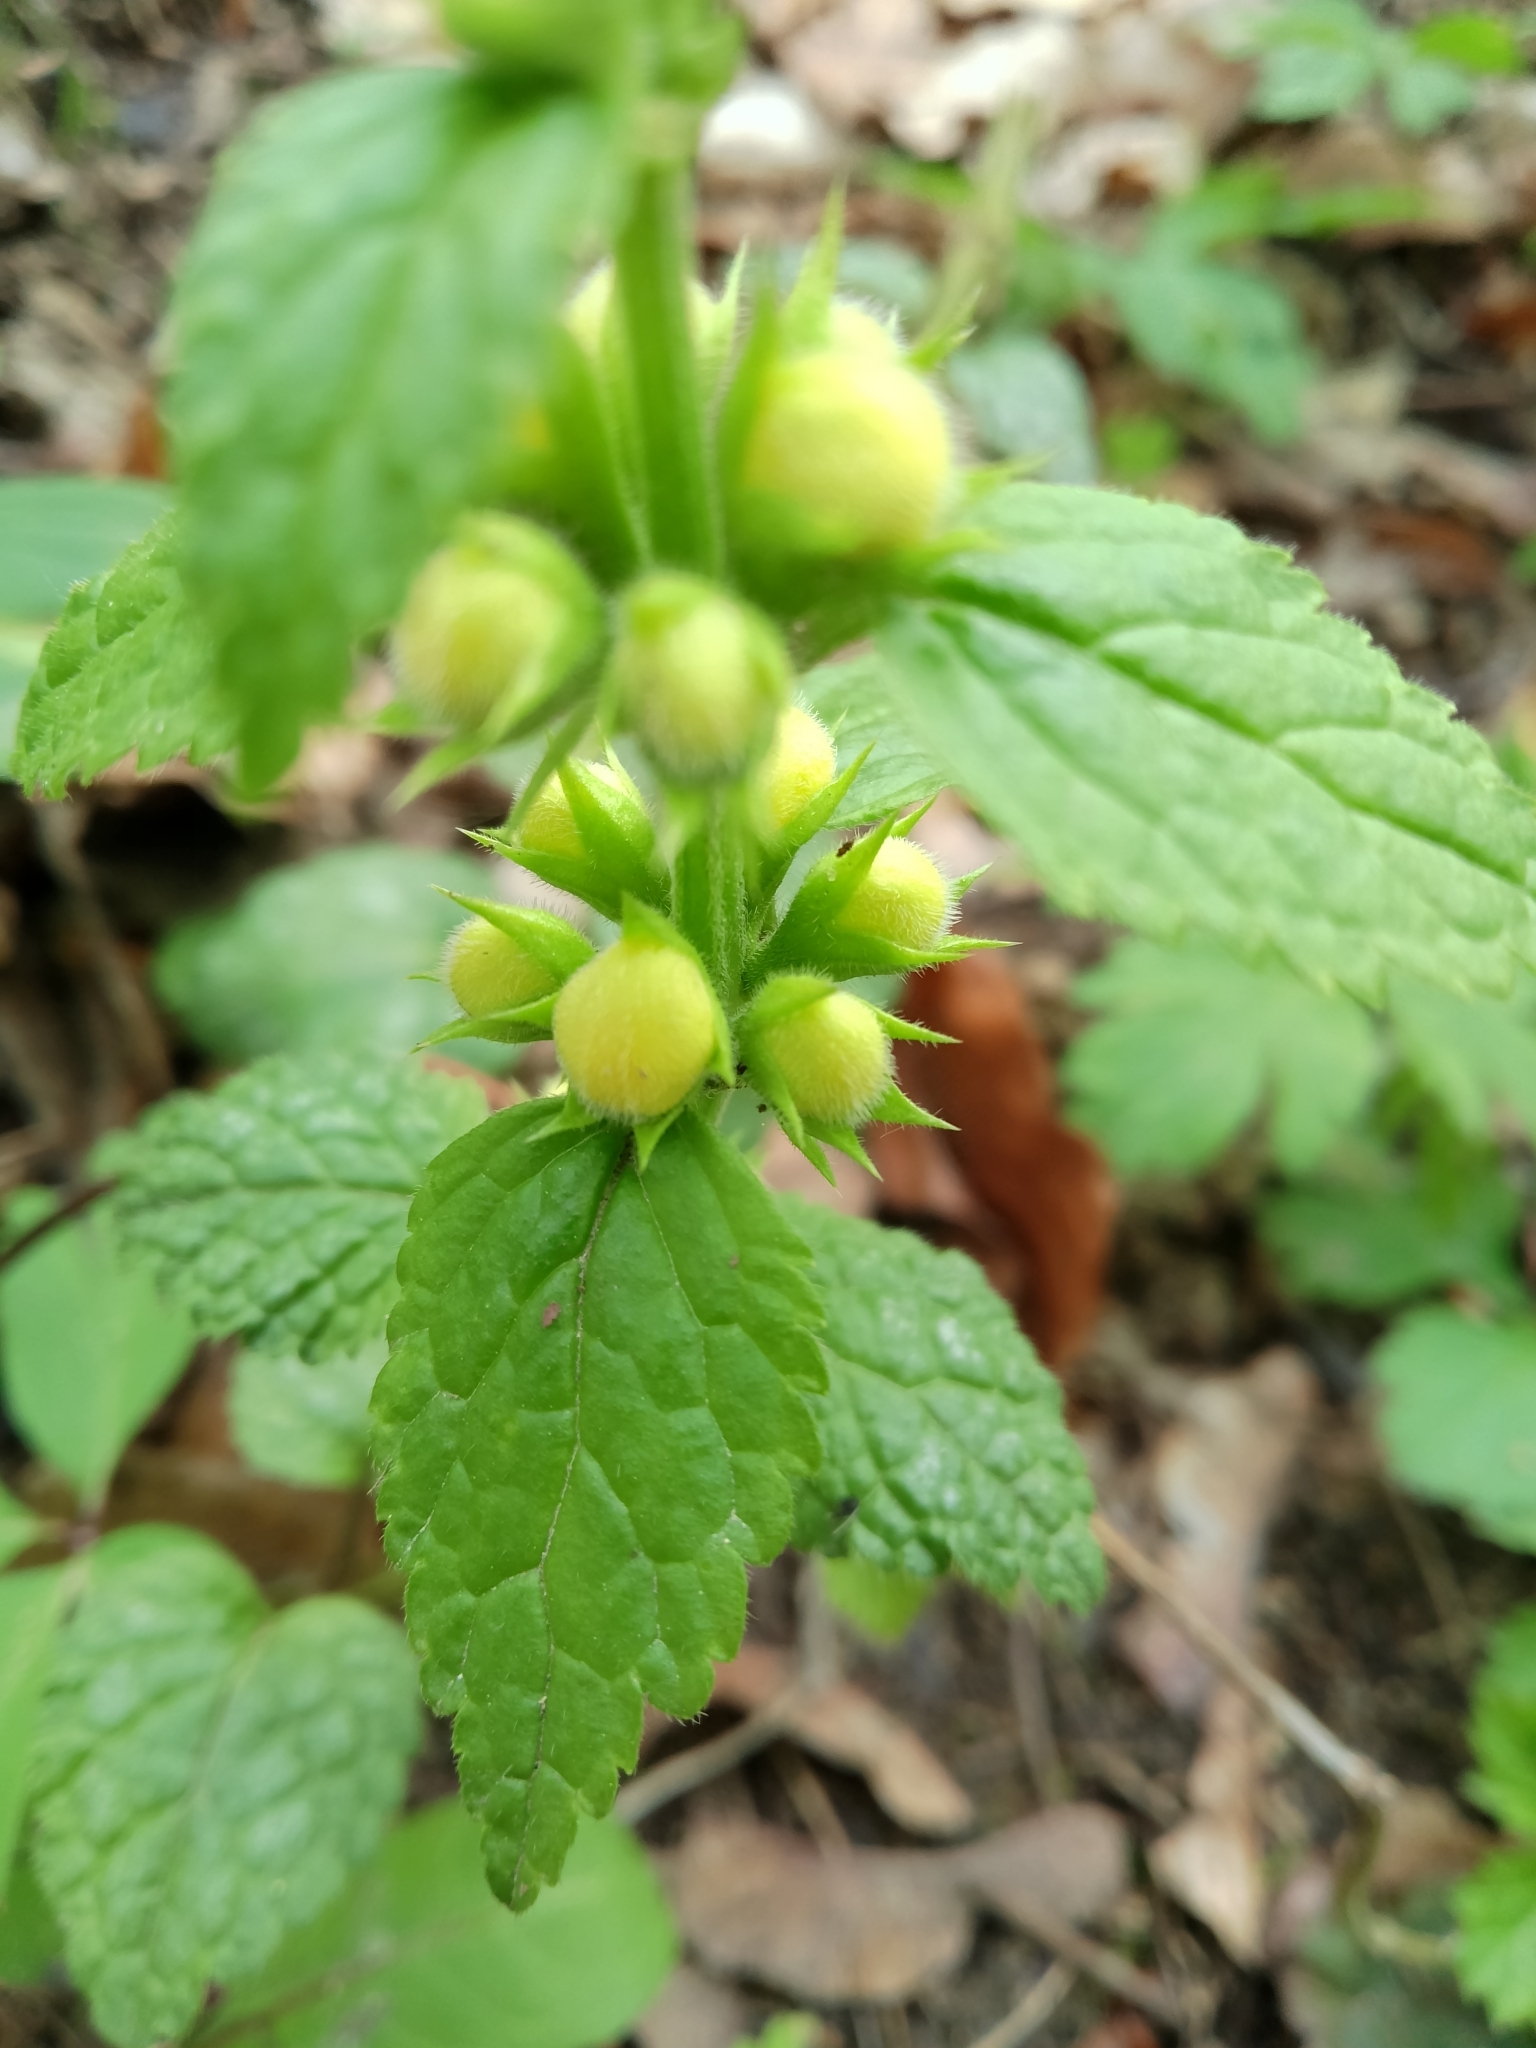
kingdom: Plantae
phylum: Tracheophyta
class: Magnoliopsida
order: Lamiales
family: Lamiaceae
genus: Lamium
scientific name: Lamium galeobdolon
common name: Yellow archangel
